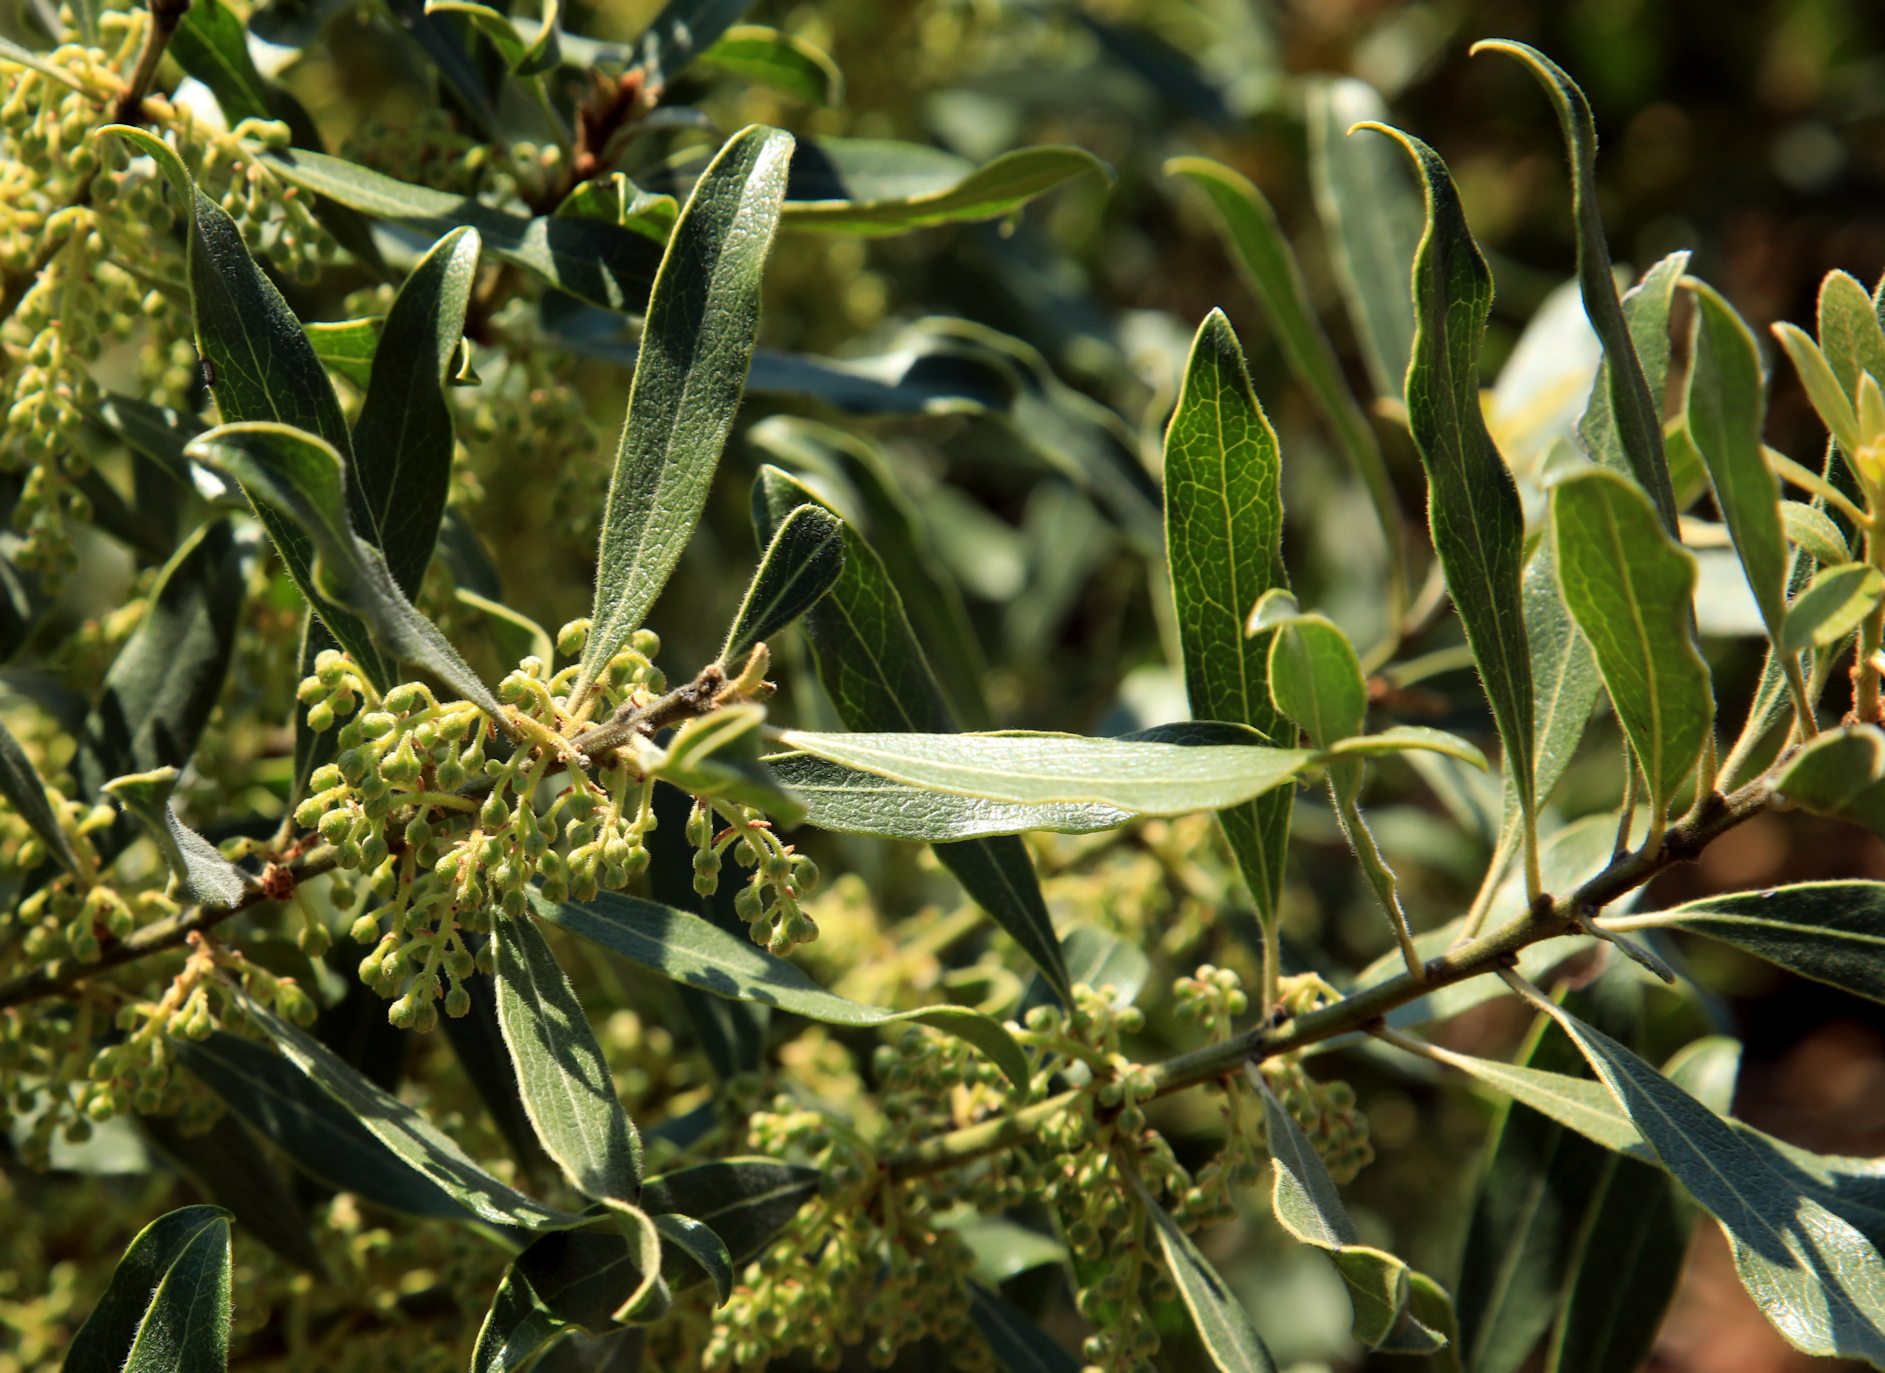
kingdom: Plantae
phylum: Tracheophyta
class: Magnoliopsida
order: Ericales
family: Ebenaceae
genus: Euclea
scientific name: Euclea natalensis
